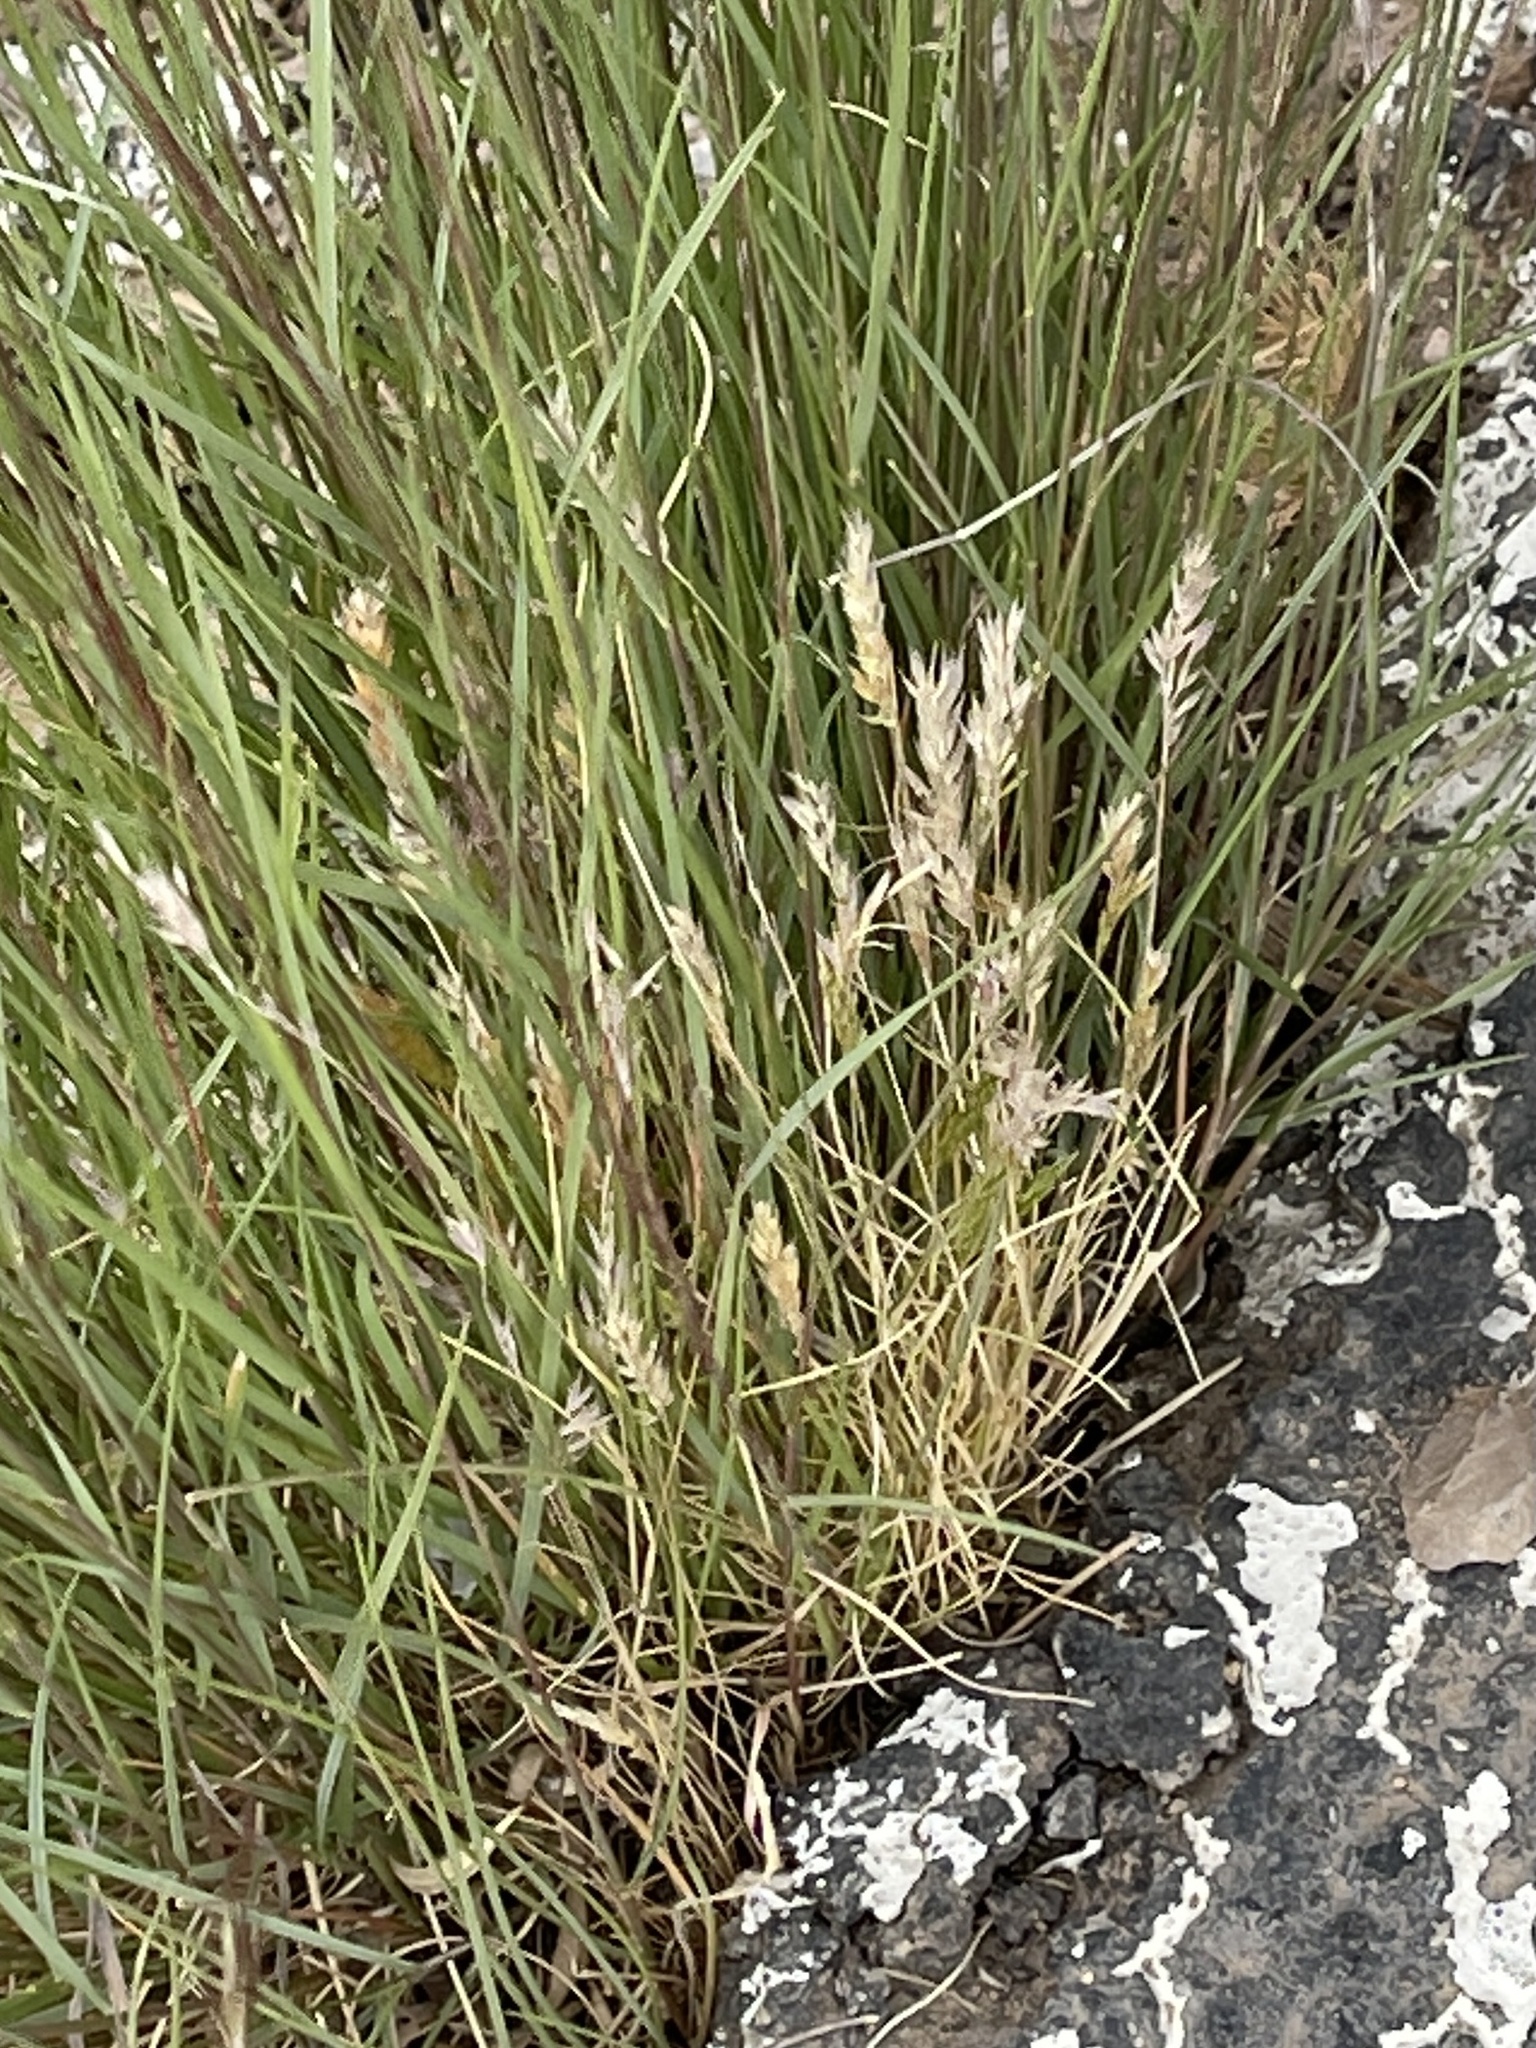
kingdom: Plantae
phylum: Tracheophyta
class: Liliopsida
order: Poales
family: Poaceae
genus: Schismus
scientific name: Schismus barbatus
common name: Kelch-grass
